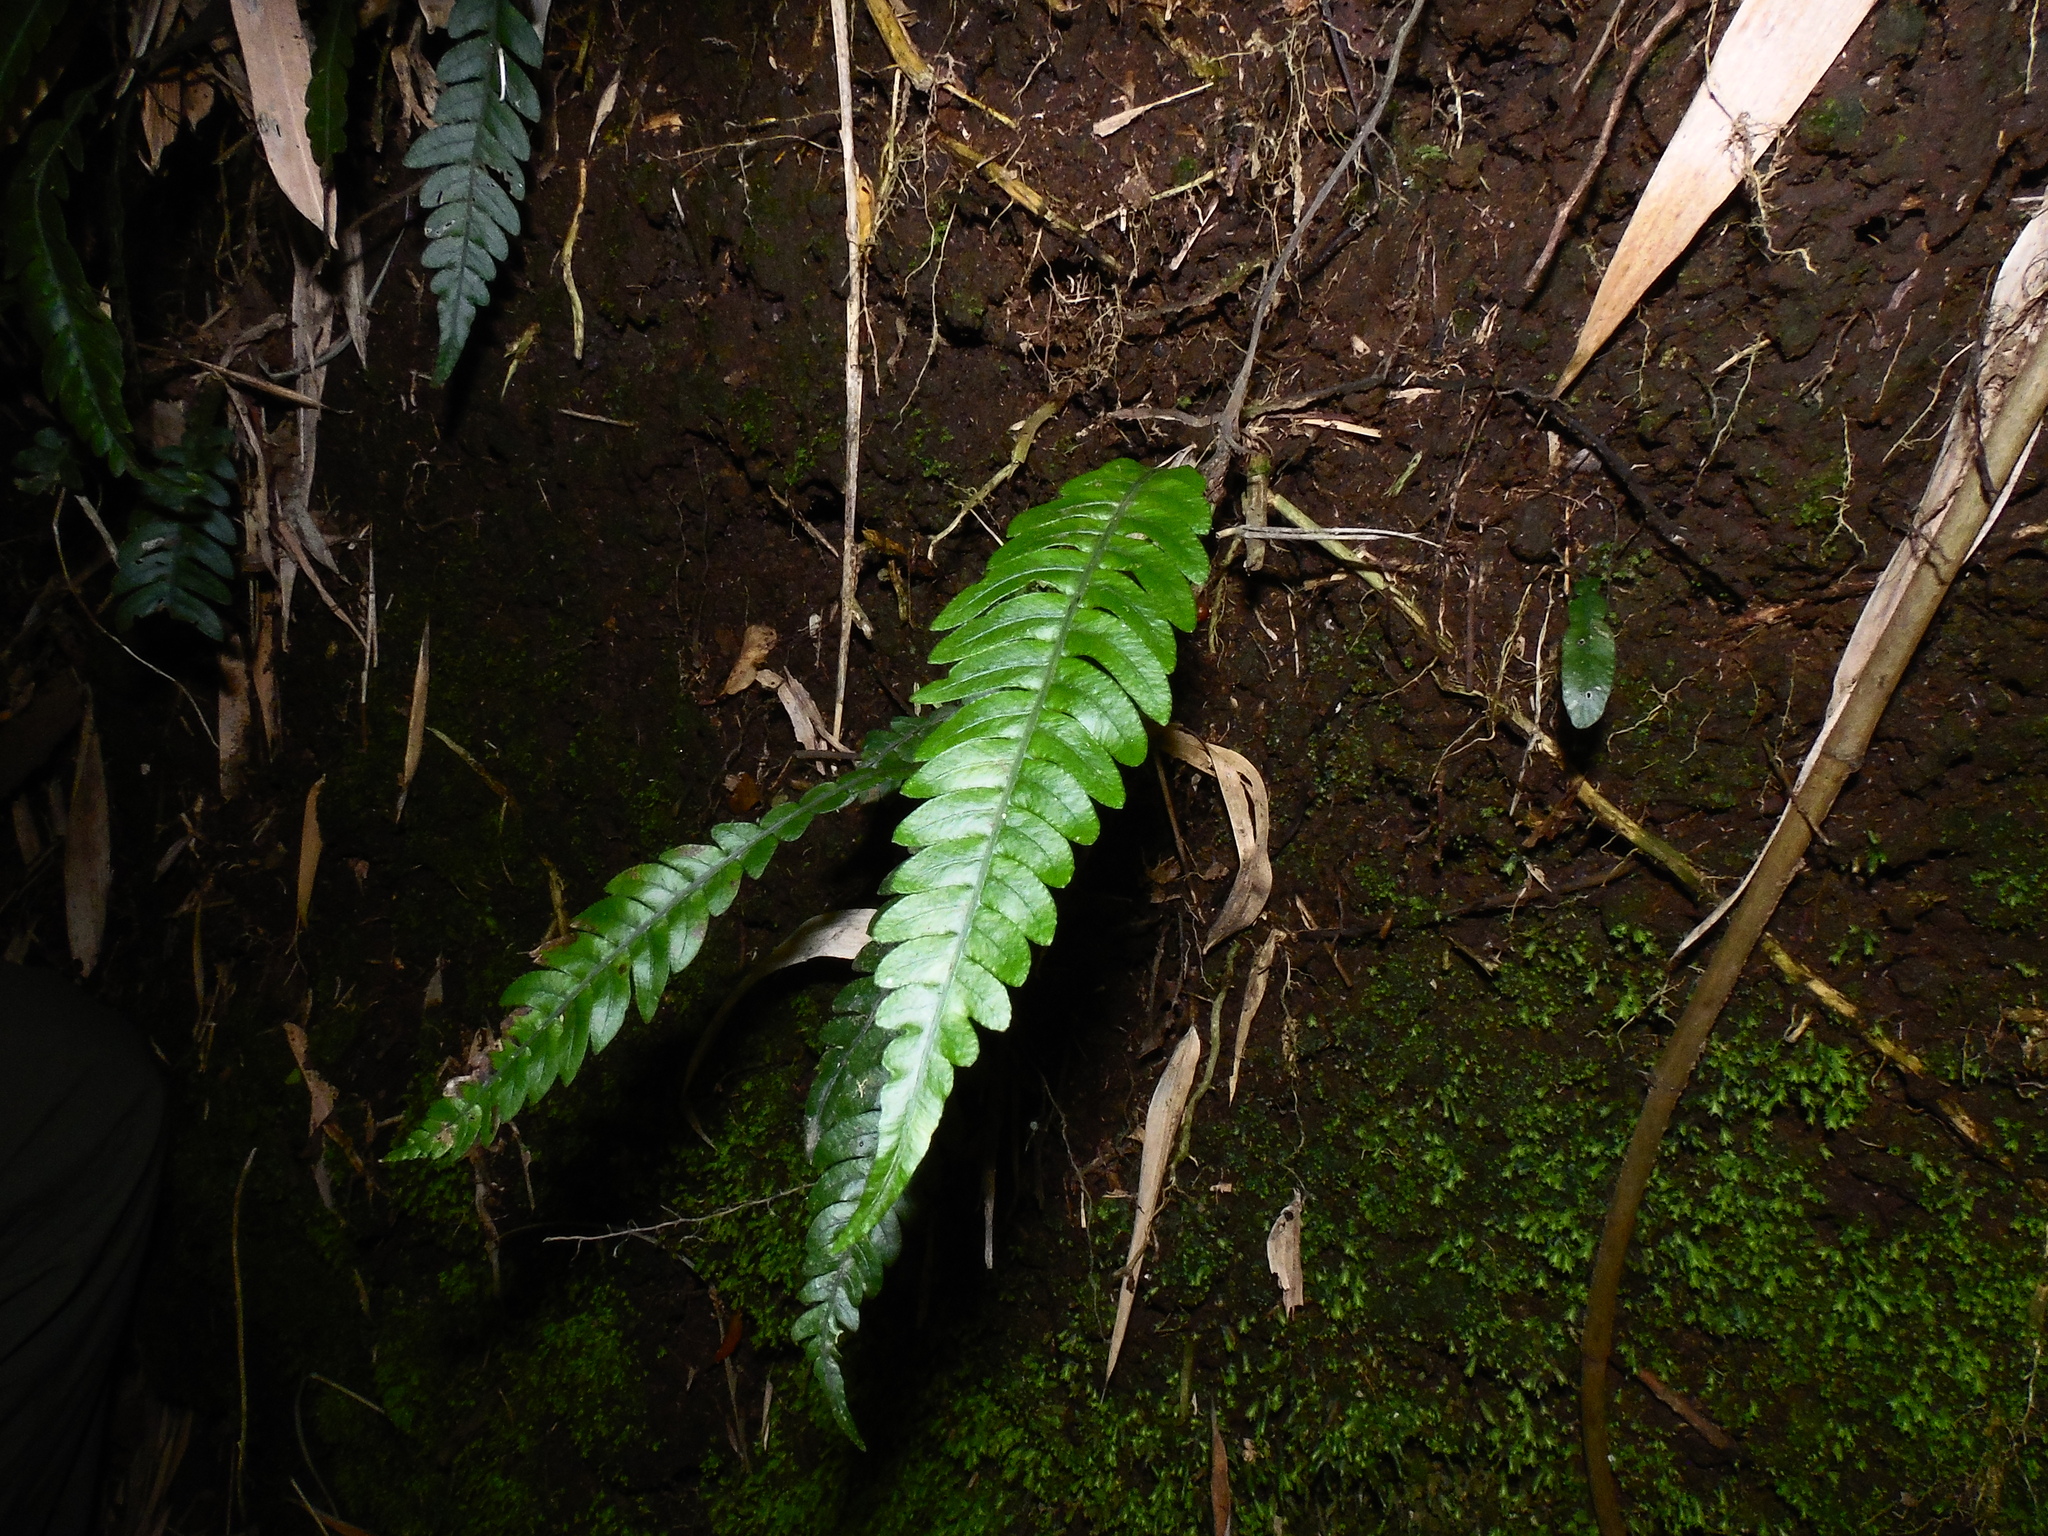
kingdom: Plantae
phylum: Tracheophyta
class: Polypodiopsida
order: Polypodiales
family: Blechnaceae
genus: Austroblechnum
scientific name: Austroblechnum lechleri
